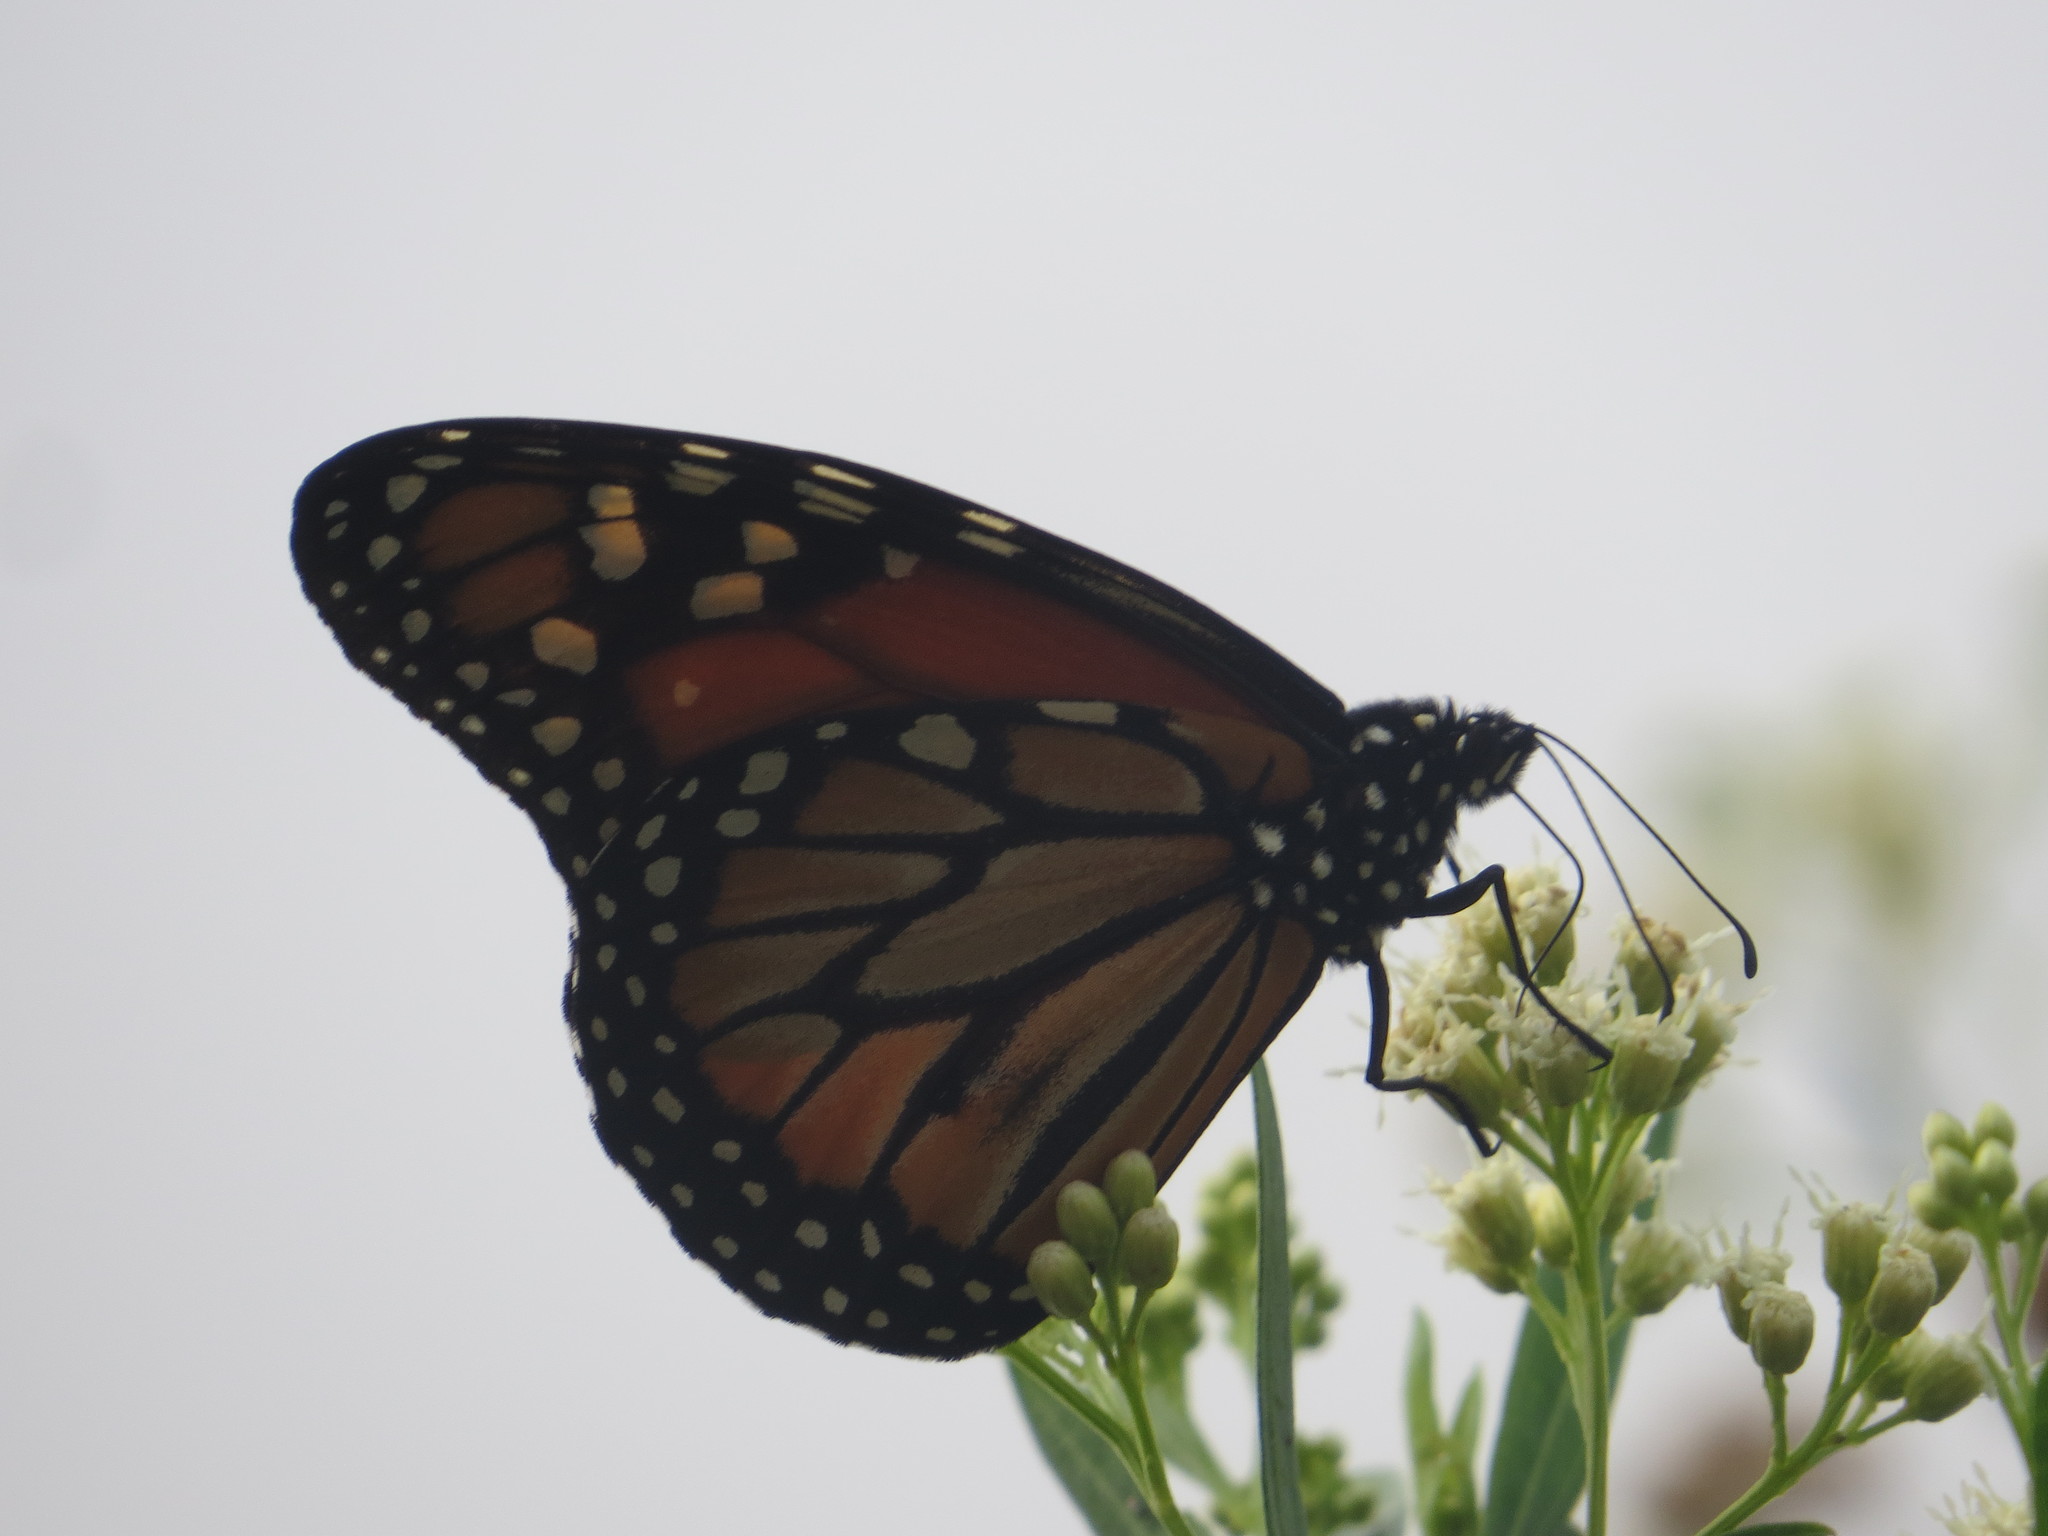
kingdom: Animalia
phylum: Arthropoda
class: Insecta
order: Lepidoptera
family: Nymphalidae
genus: Danaus
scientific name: Danaus erippus
